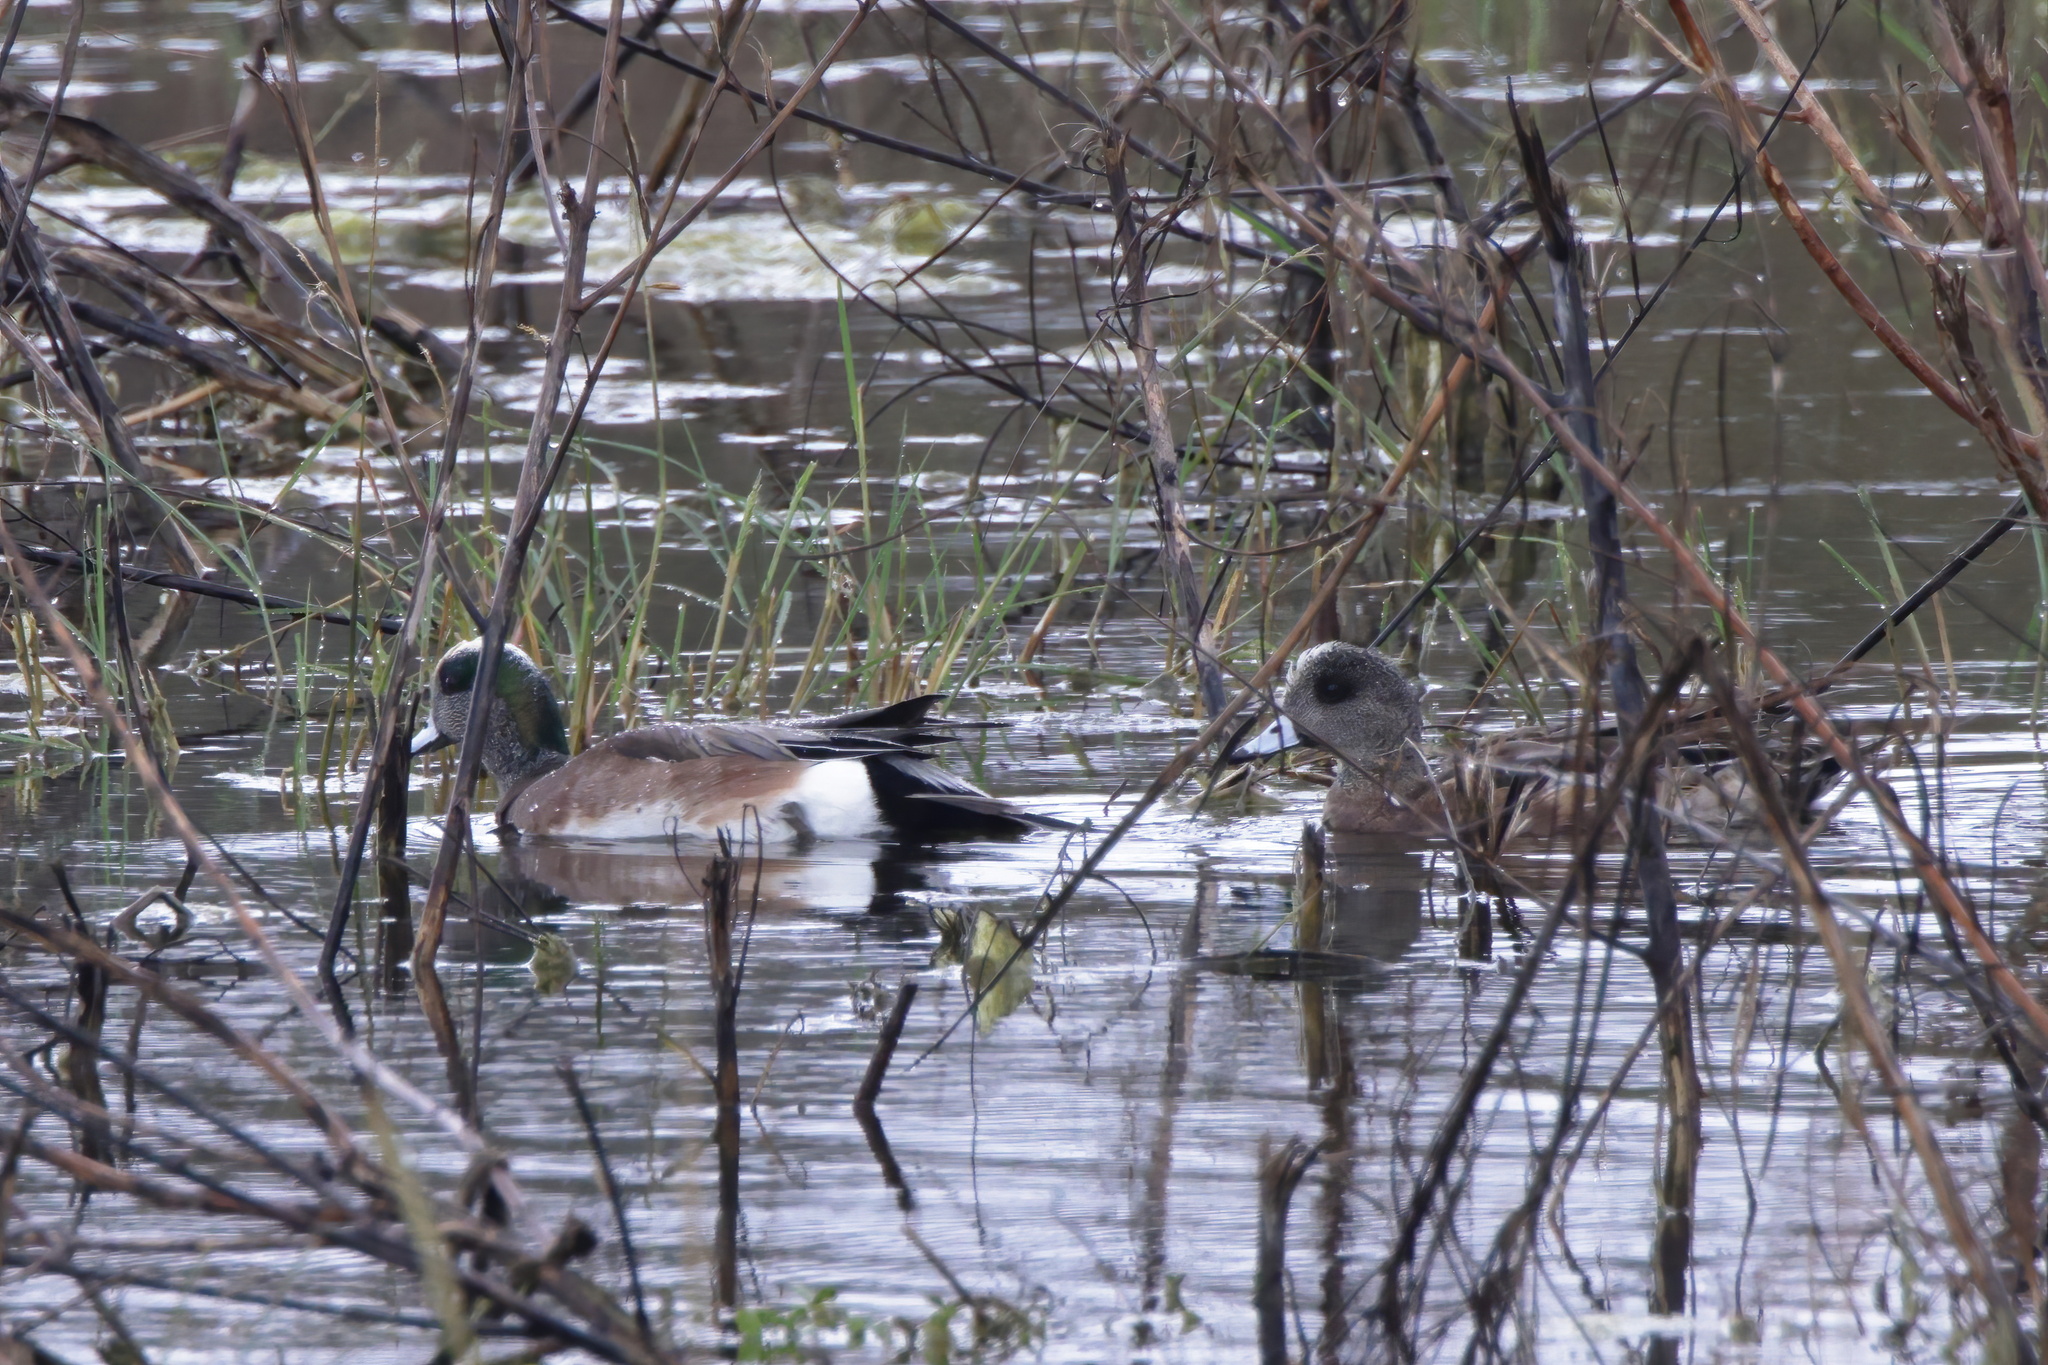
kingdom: Animalia
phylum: Chordata
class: Aves
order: Anseriformes
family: Anatidae
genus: Mareca
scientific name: Mareca americana
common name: American wigeon
